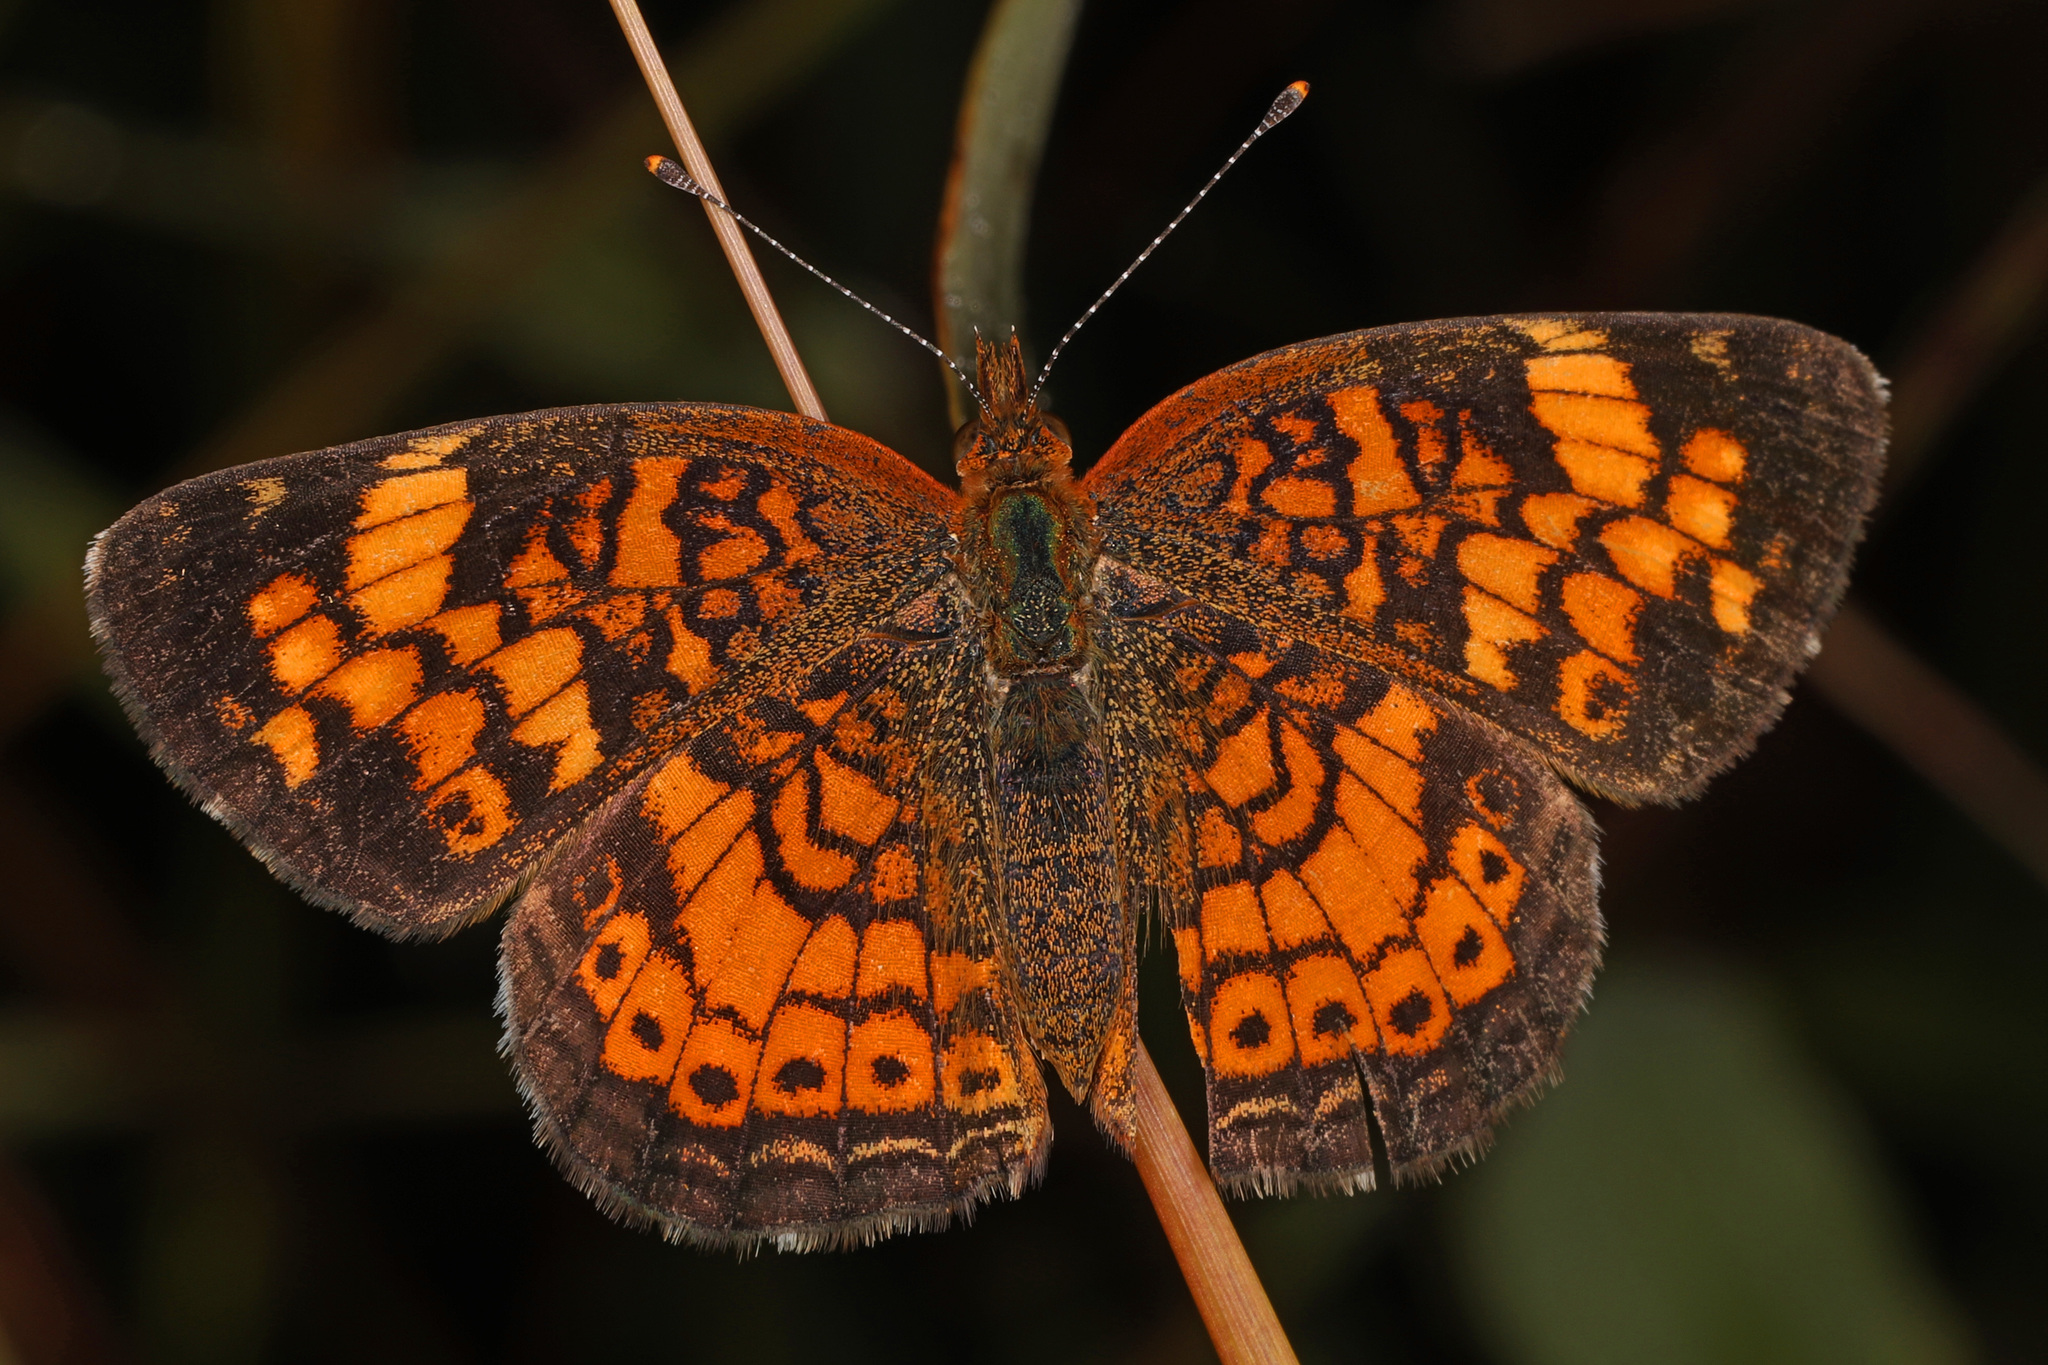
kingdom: Animalia
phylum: Arthropoda
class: Insecta
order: Lepidoptera
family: Nymphalidae
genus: Phyciodes
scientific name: Phyciodes tharos
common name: Pearl crescent
